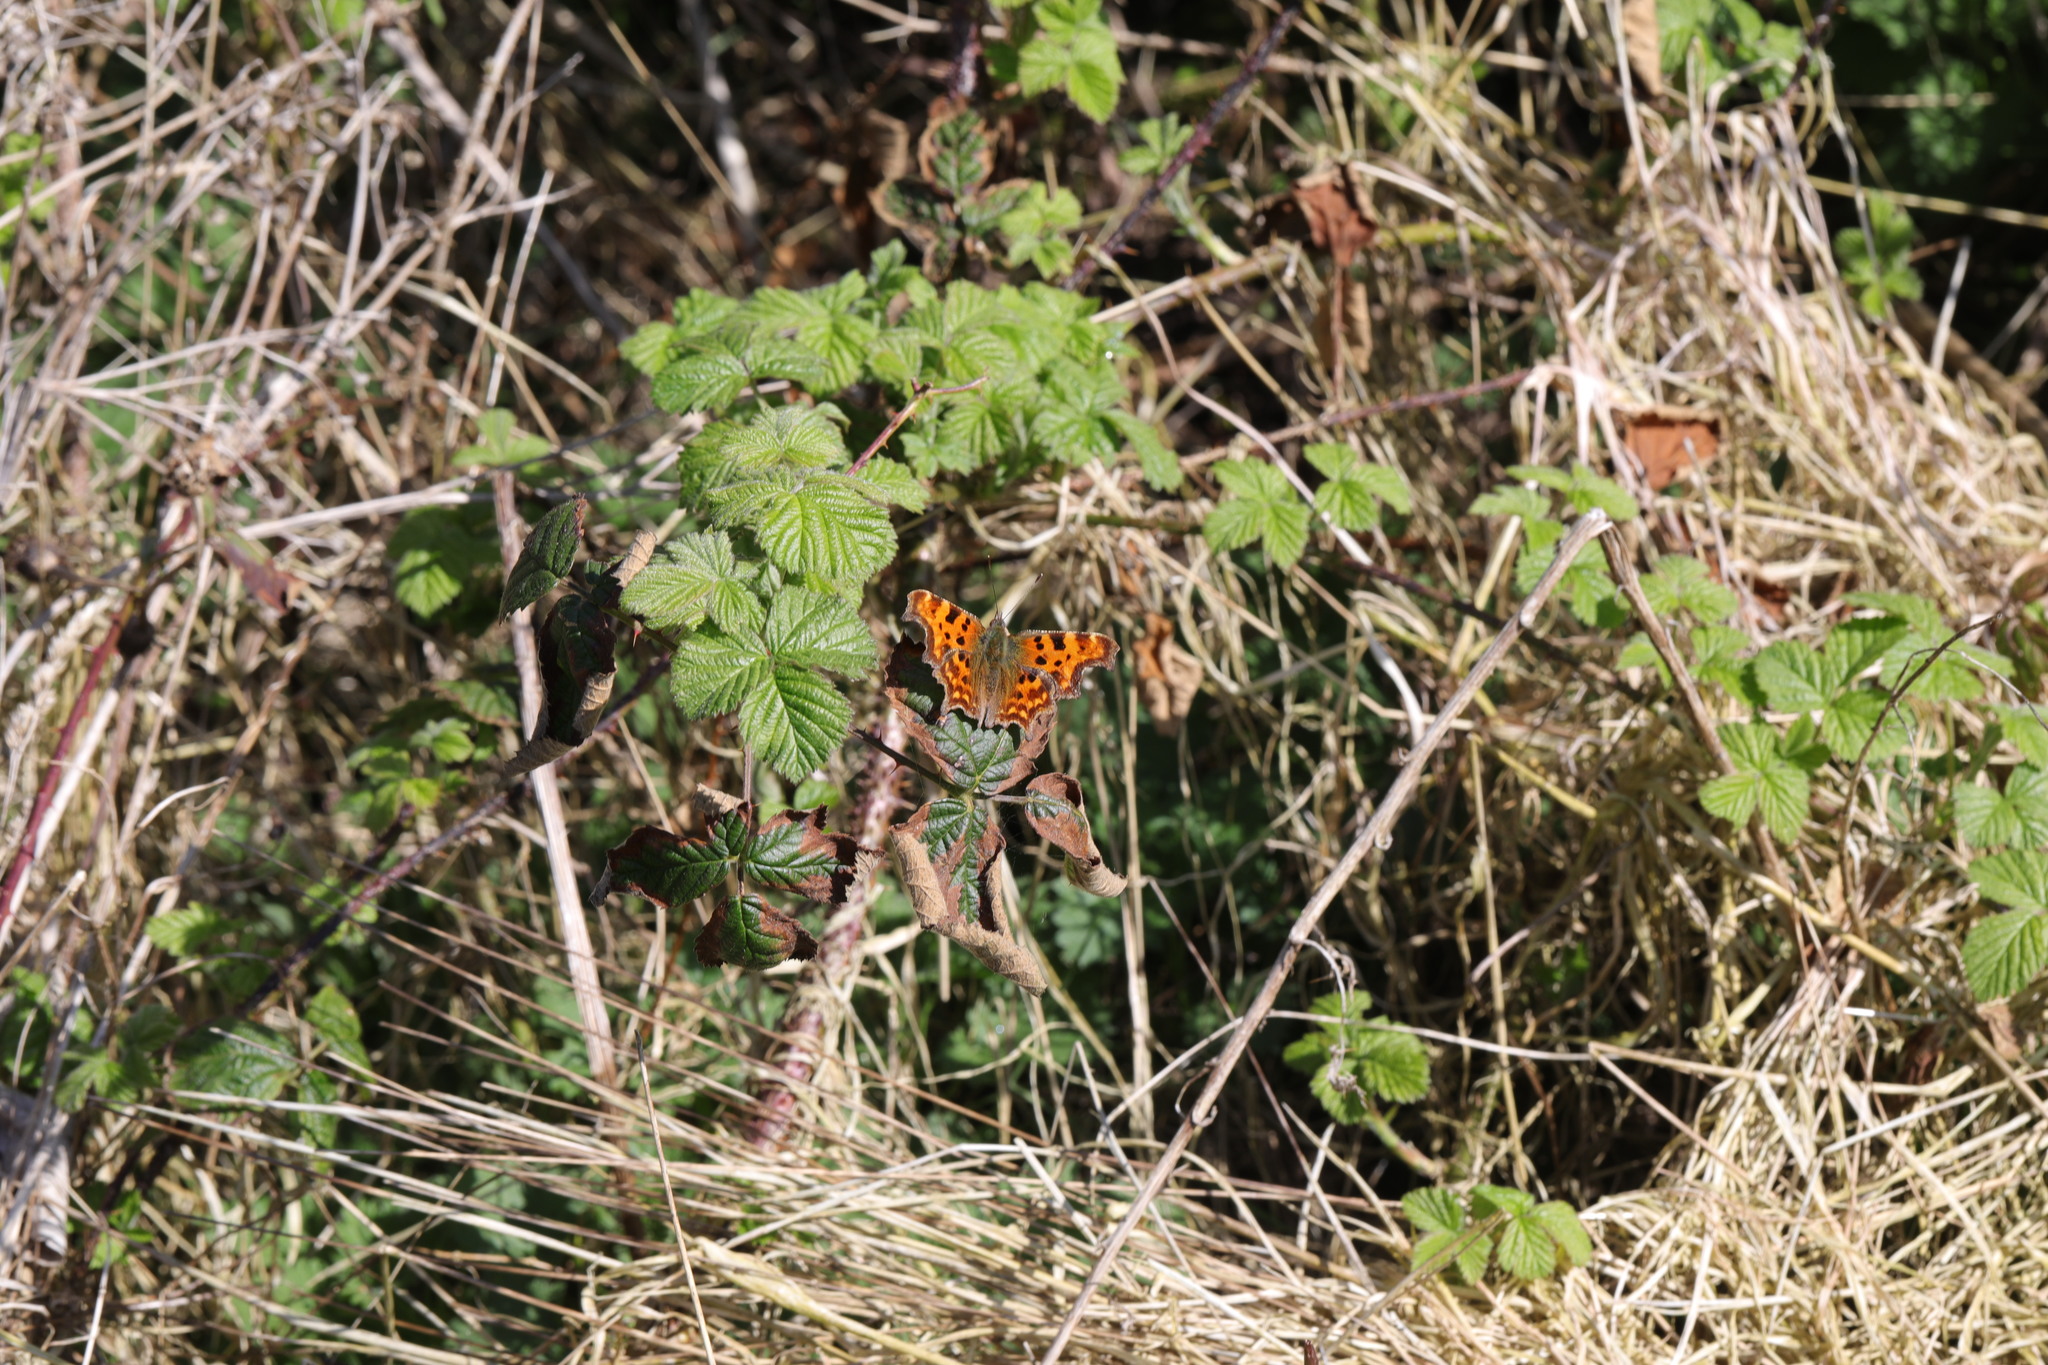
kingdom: Animalia
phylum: Arthropoda
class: Insecta
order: Lepidoptera
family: Nymphalidae
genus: Polygonia
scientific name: Polygonia c-album
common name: Comma
